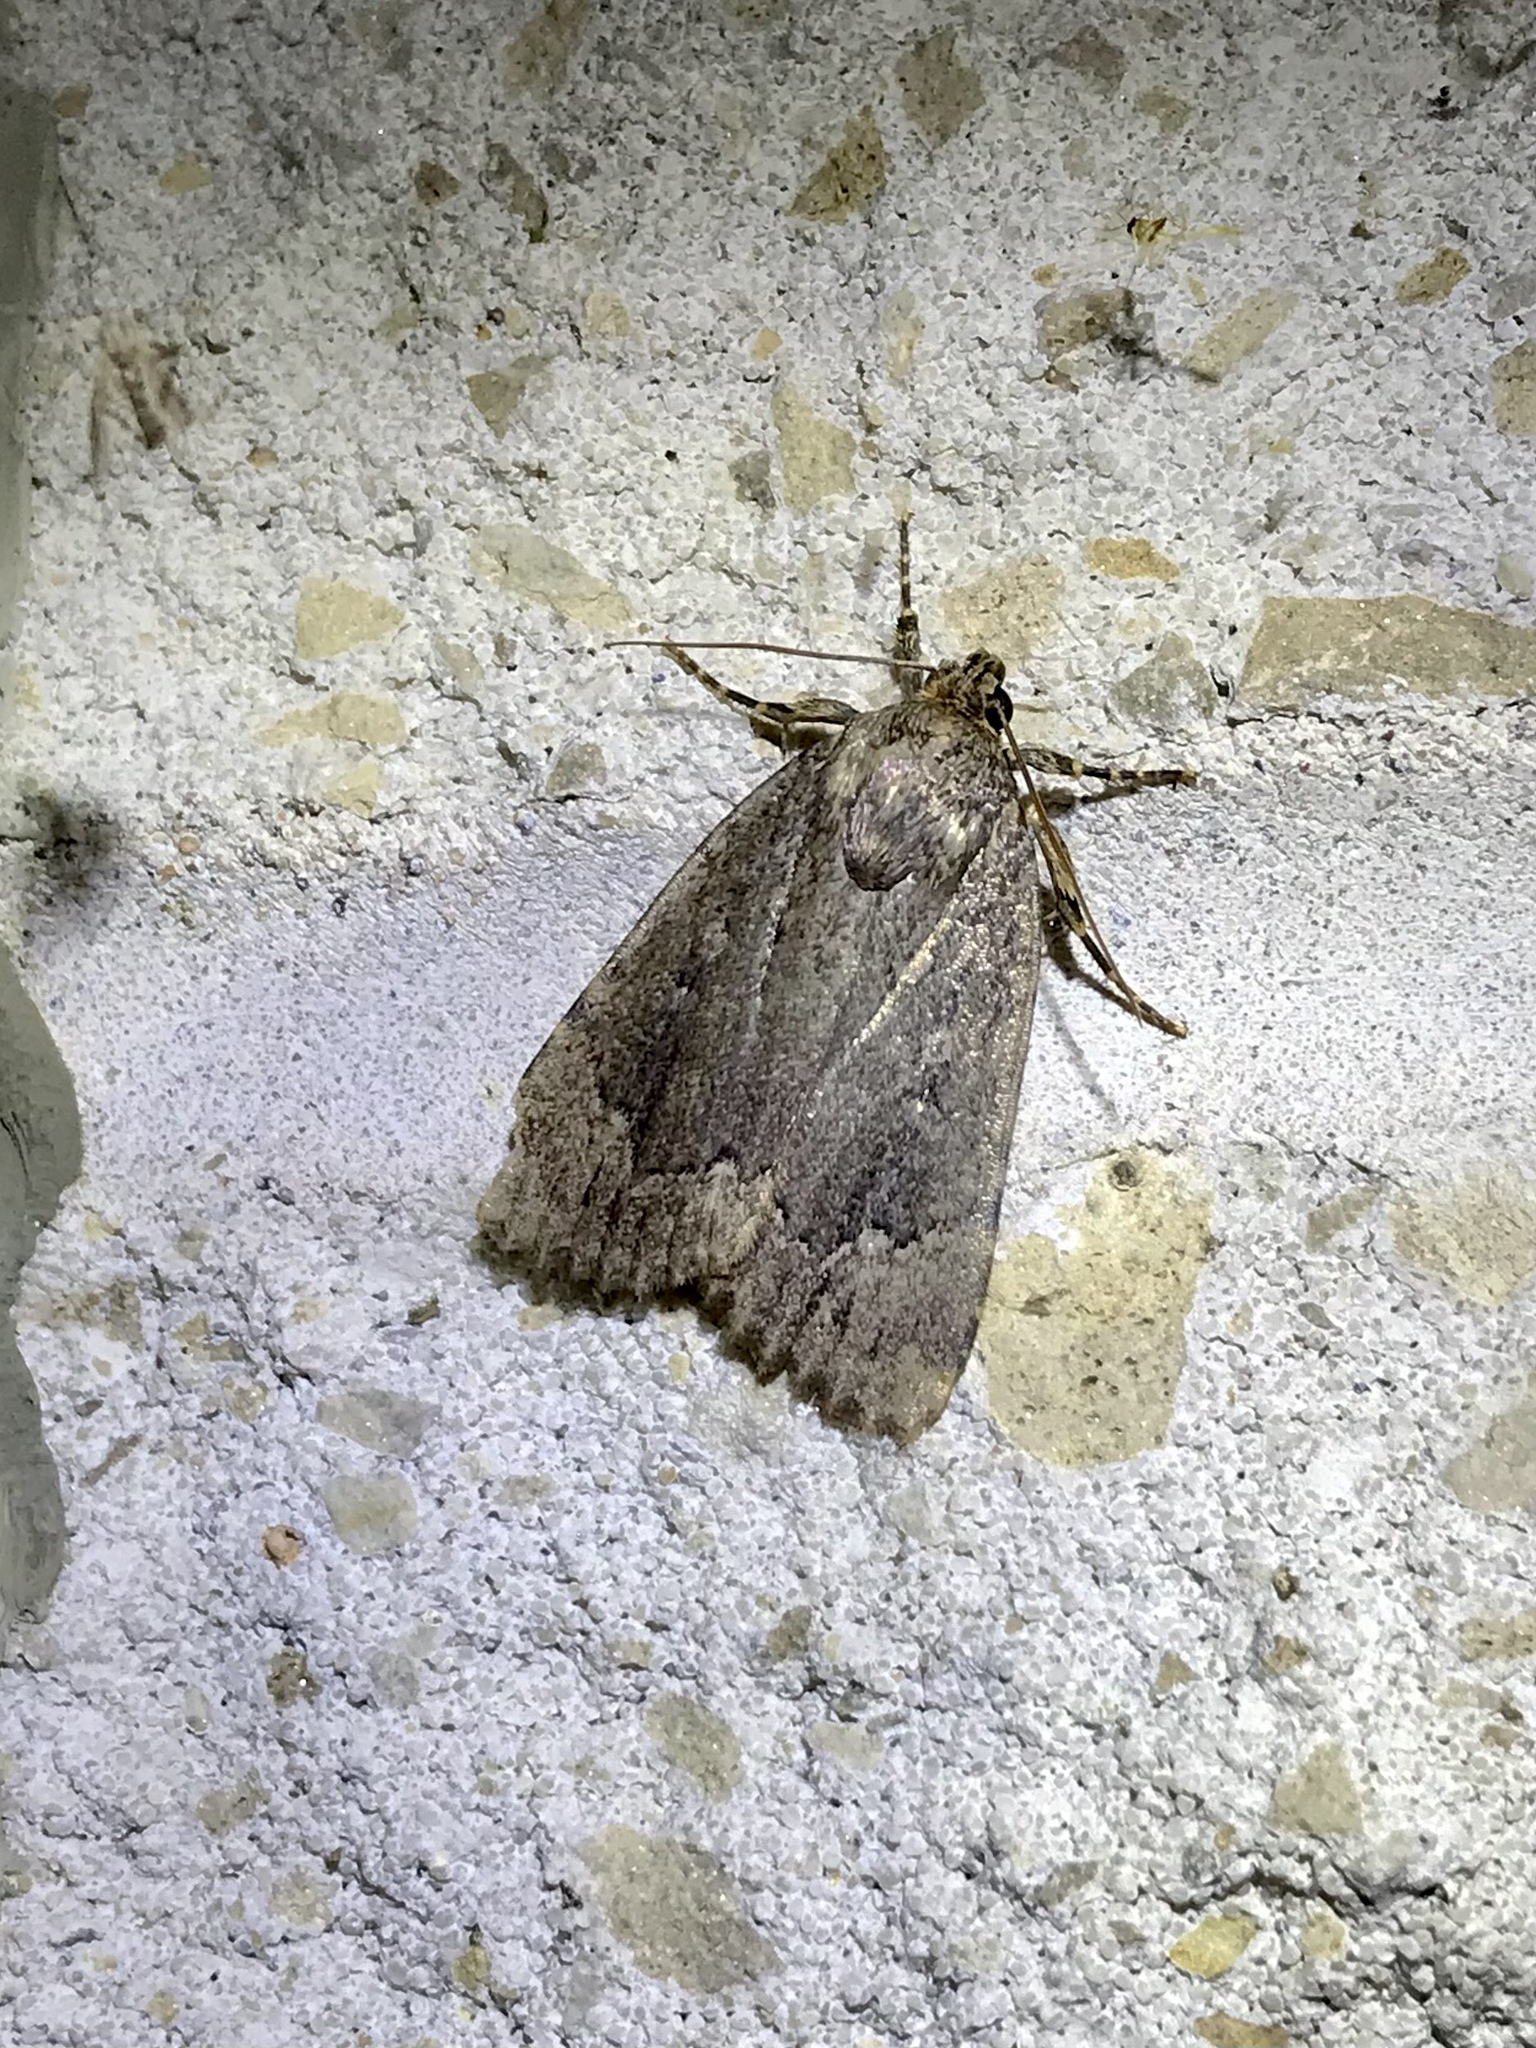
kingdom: Animalia
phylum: Arthropoda
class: Insecta
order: Lepidoptera
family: Noctuidae
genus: Amphipyra
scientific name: Amphipyra pyramidoides
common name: American copper underwing
